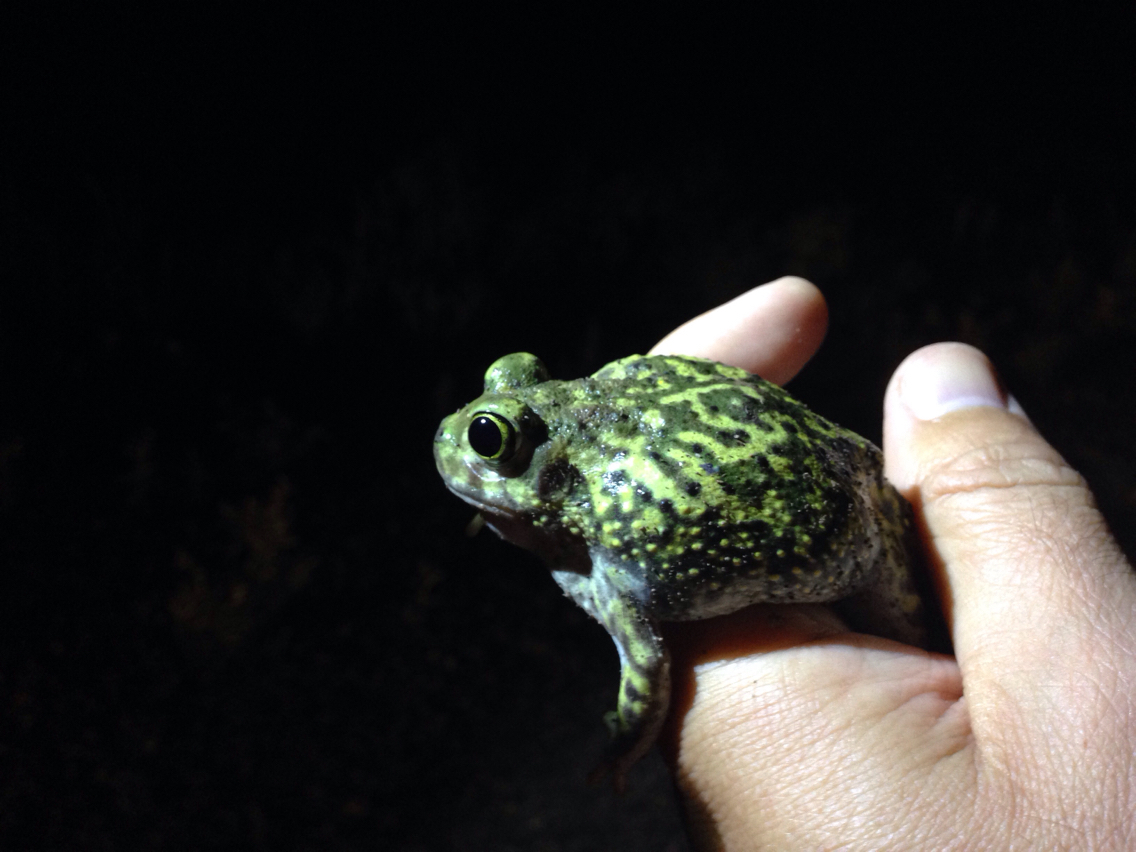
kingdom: Animalia
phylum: Chordata
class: Amphibia
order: Anura
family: Scaphiopodidae
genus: Scaphiopus
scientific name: Scaphiopus couchii
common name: Couch's spadefoot toad
